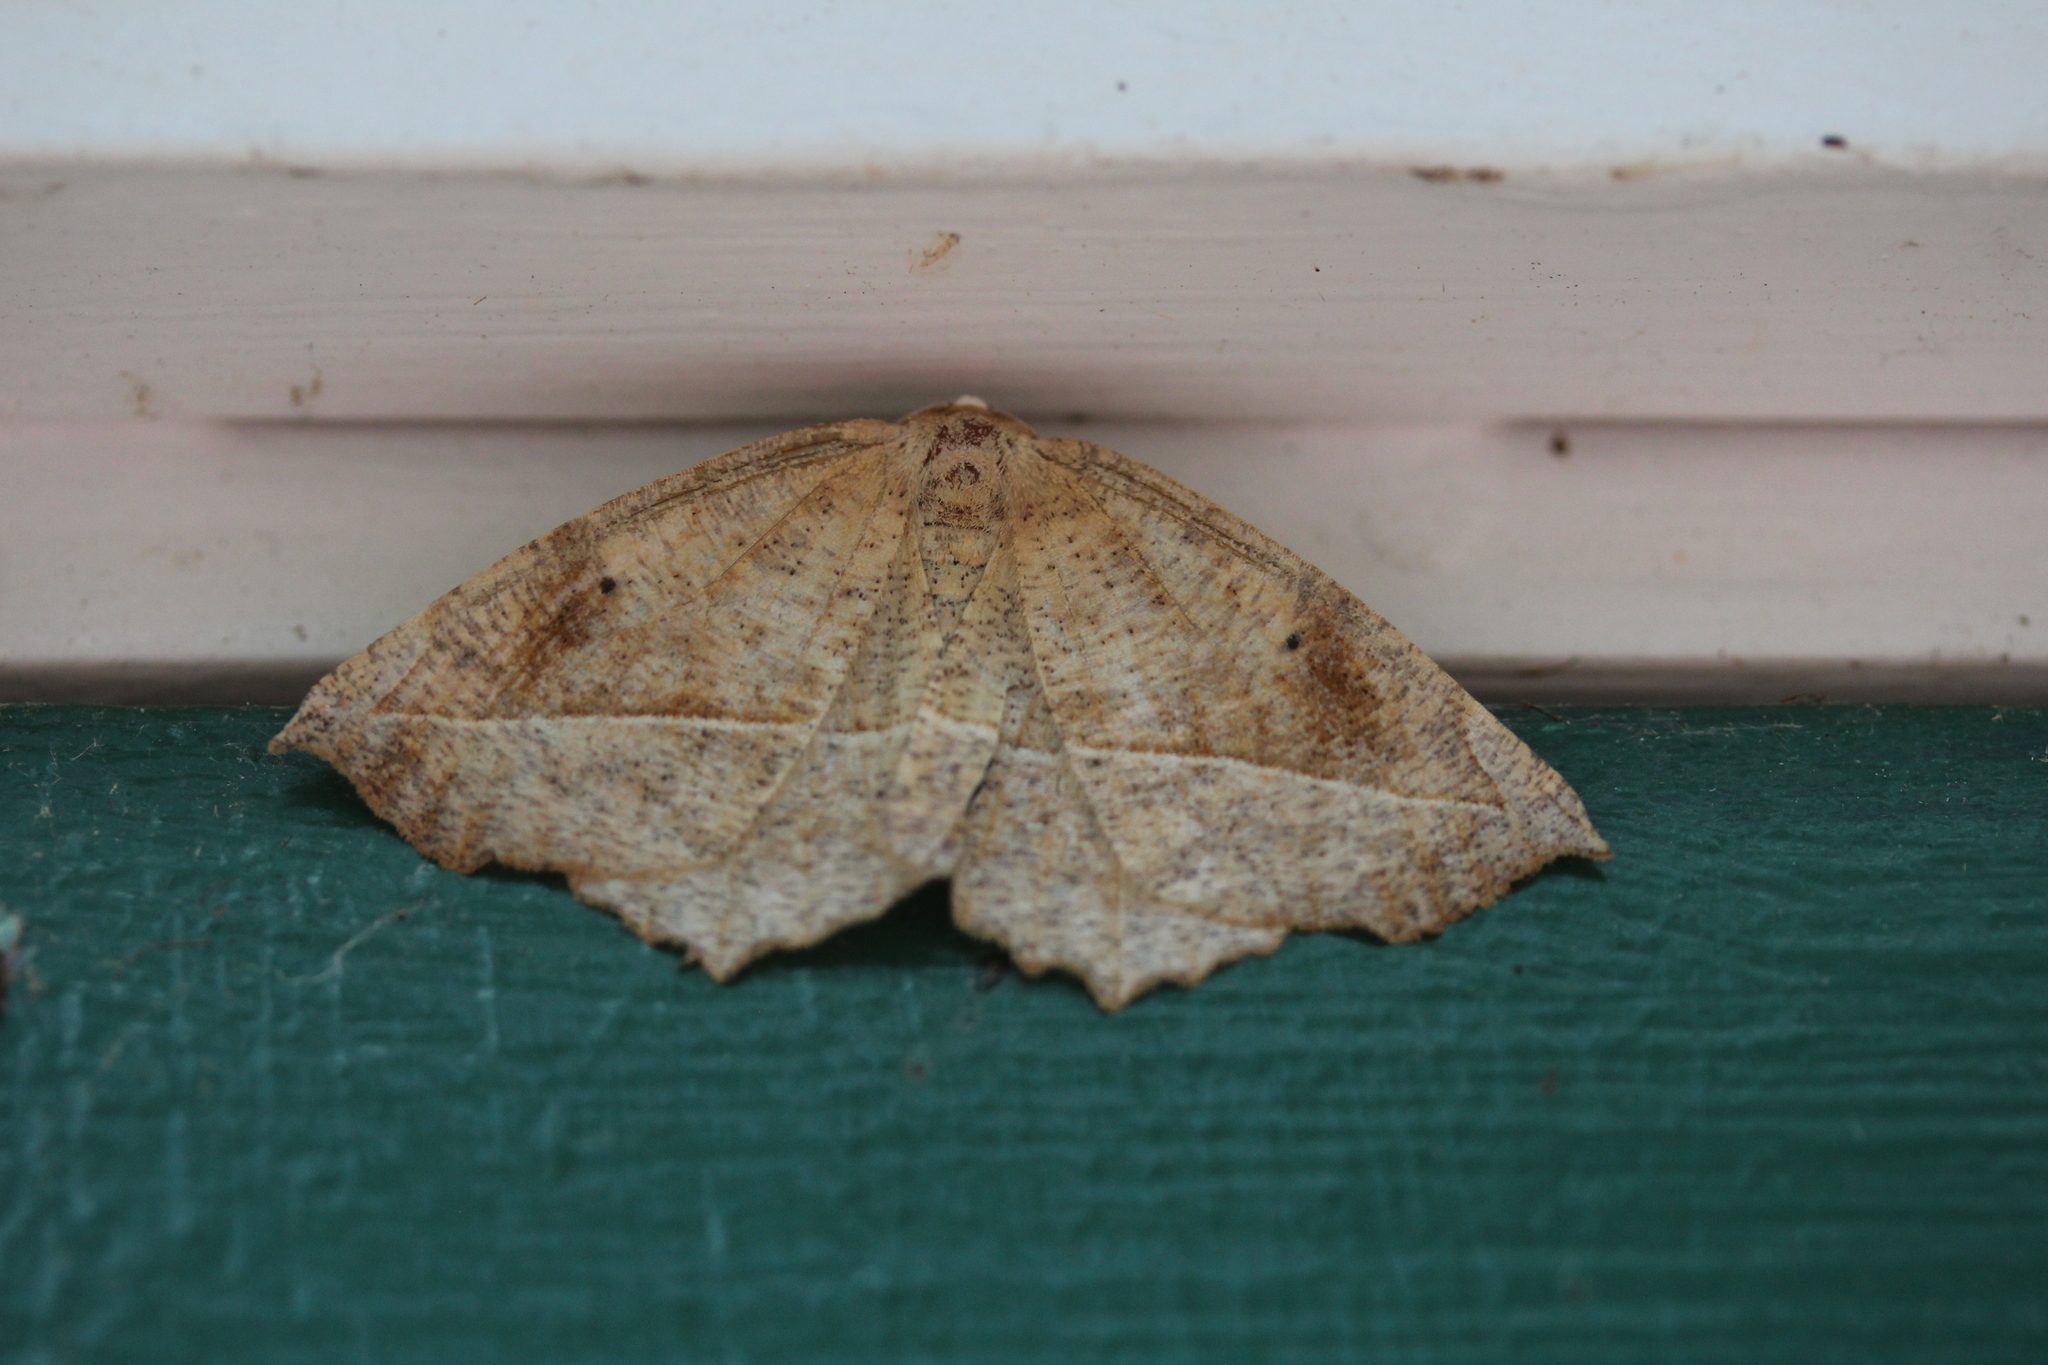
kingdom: Animalia
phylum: Arthropoda
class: Insecta
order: Lepidoptera
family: Geometridae
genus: Eutrapela
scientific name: Eutrapela clemataria
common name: Curved-toothed geometer
